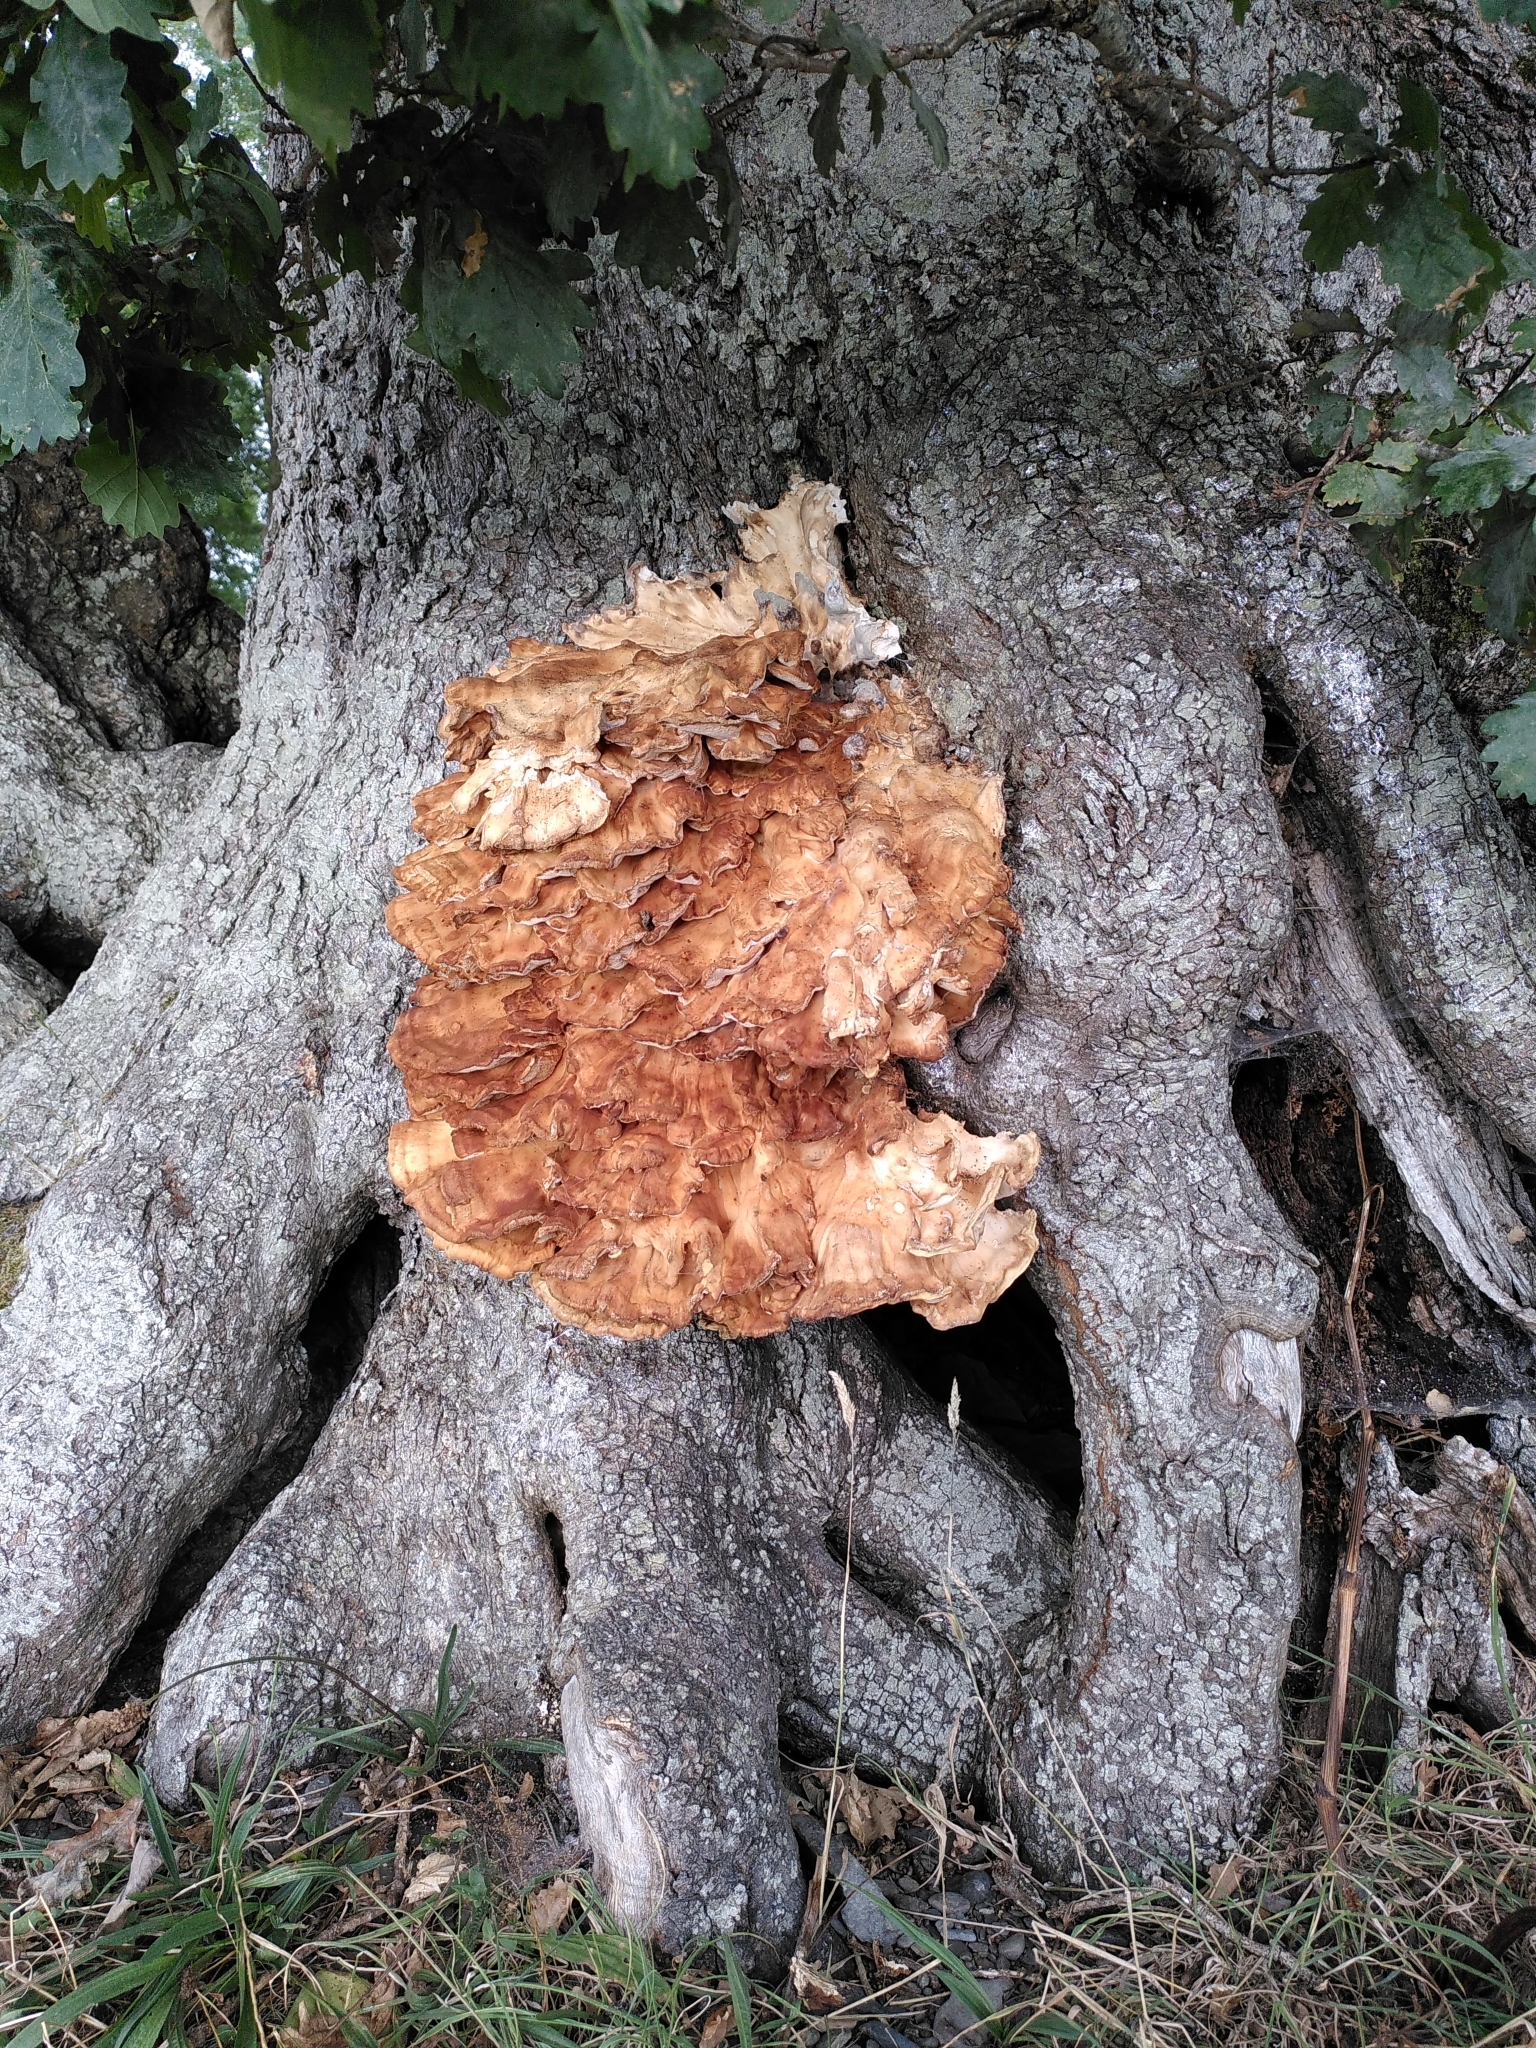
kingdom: Fungi
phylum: Basidiomycota
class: Agaricomycetes
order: Polyporales
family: Meripilaceae
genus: Meripilus
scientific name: Meripilus giganteus
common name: Giant polypore
